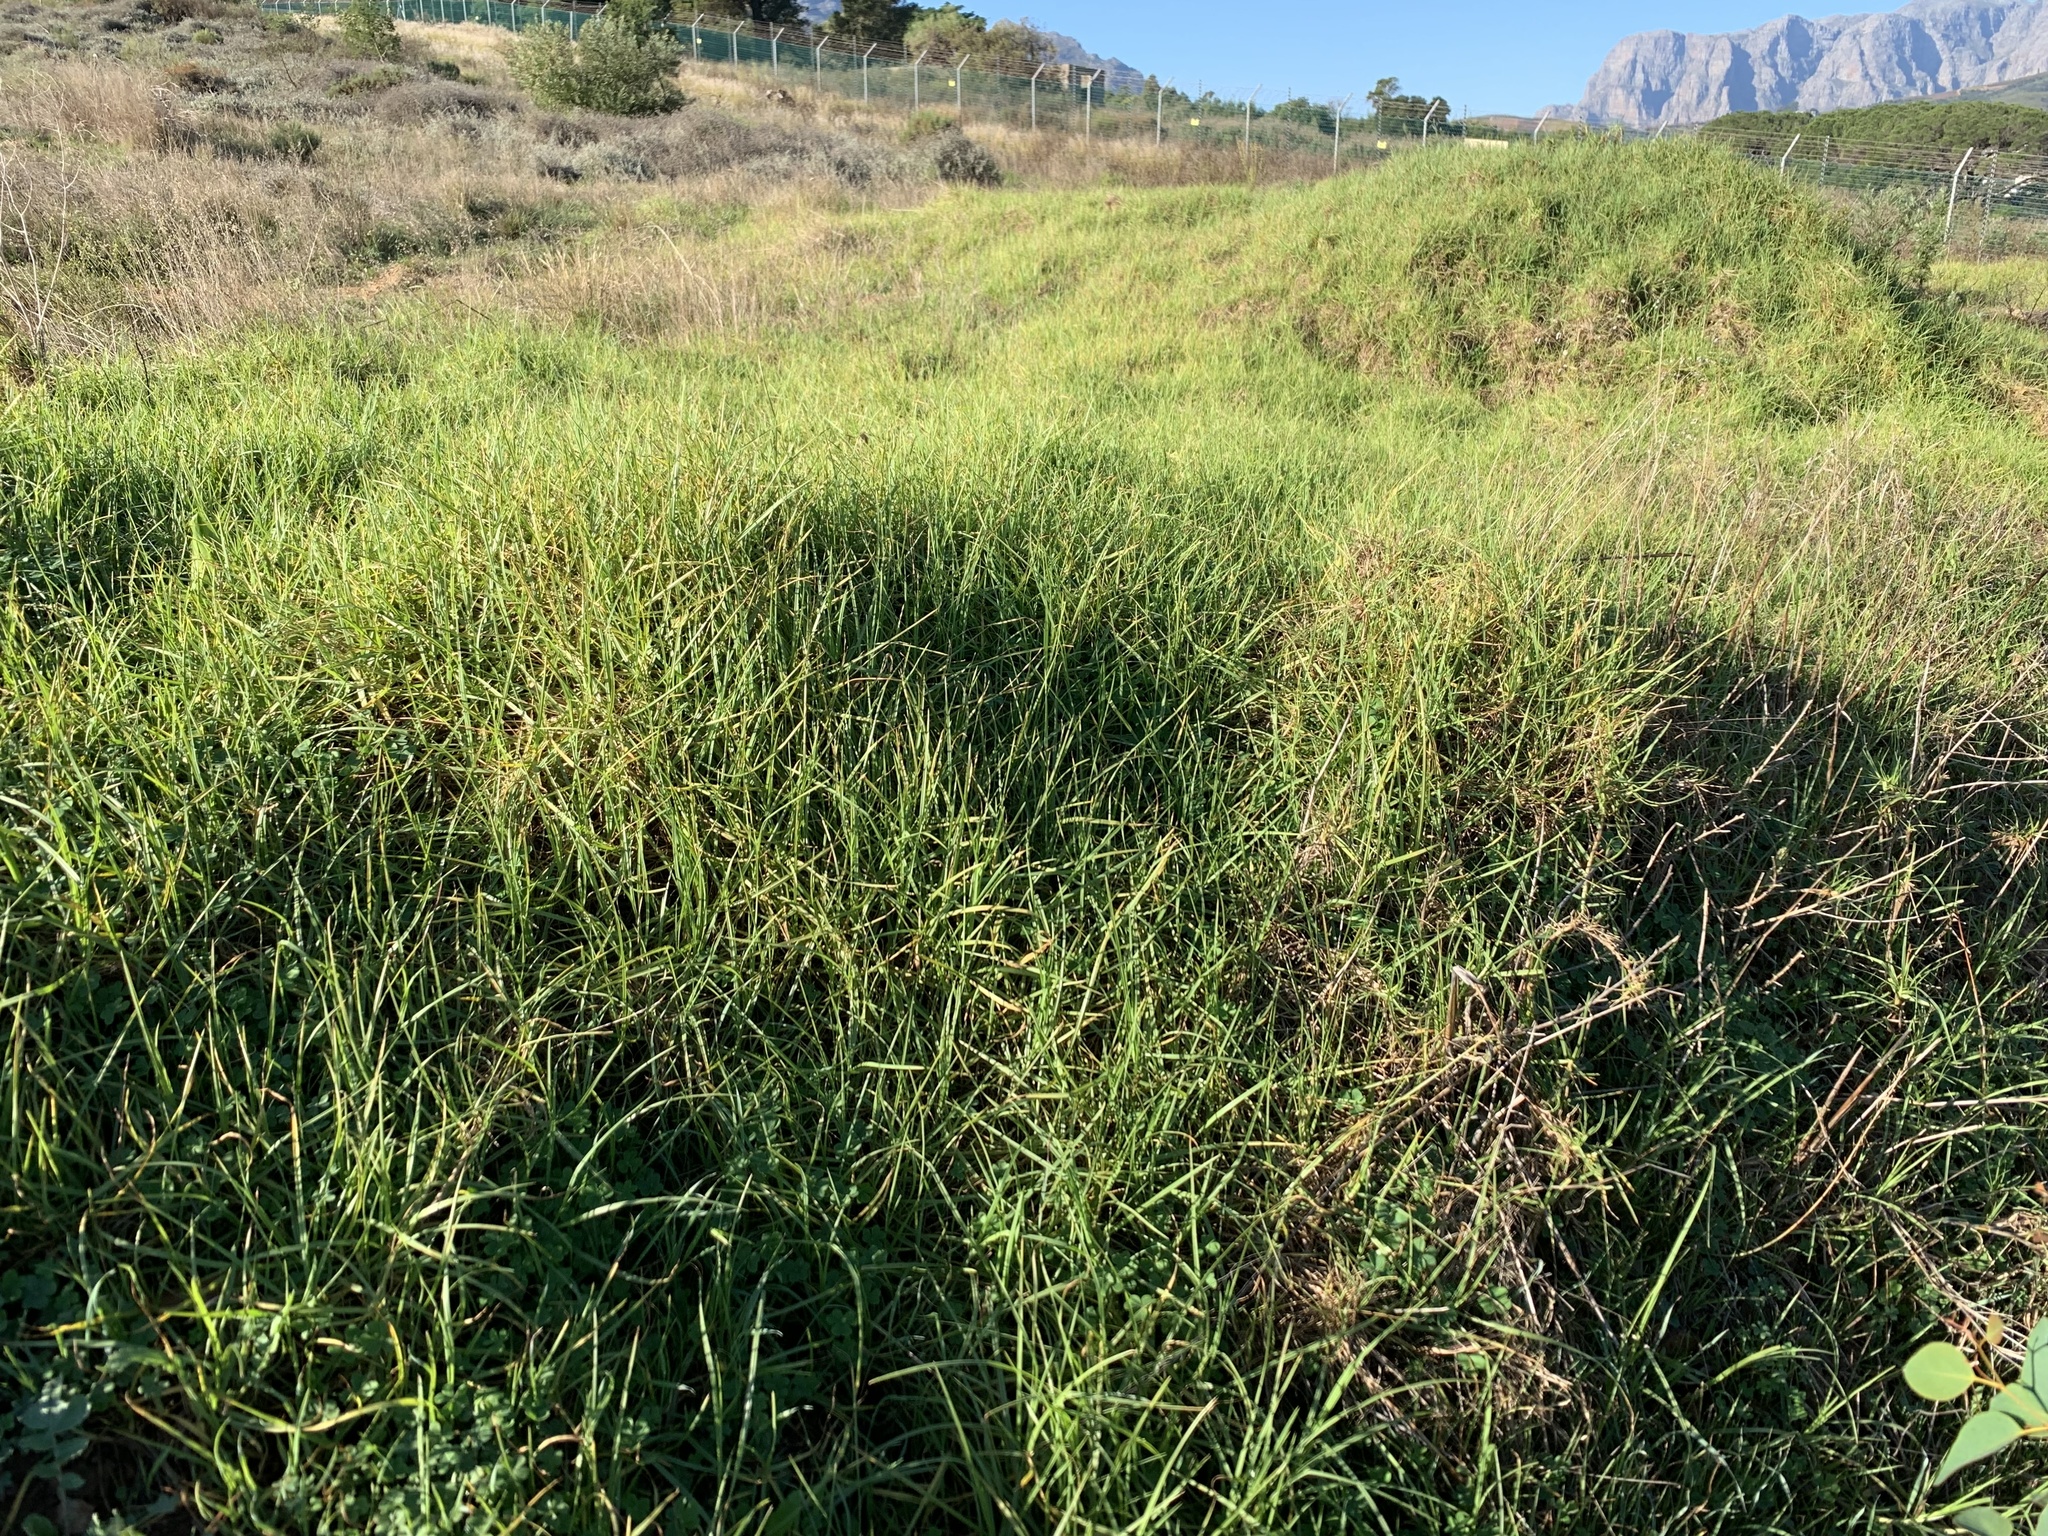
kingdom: Plantae
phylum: Tracheophyta
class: Liliopsida
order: Poales
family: Poaceae
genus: Cenchrus
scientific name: Cenchrus clandestinus
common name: Kikuyugrass
